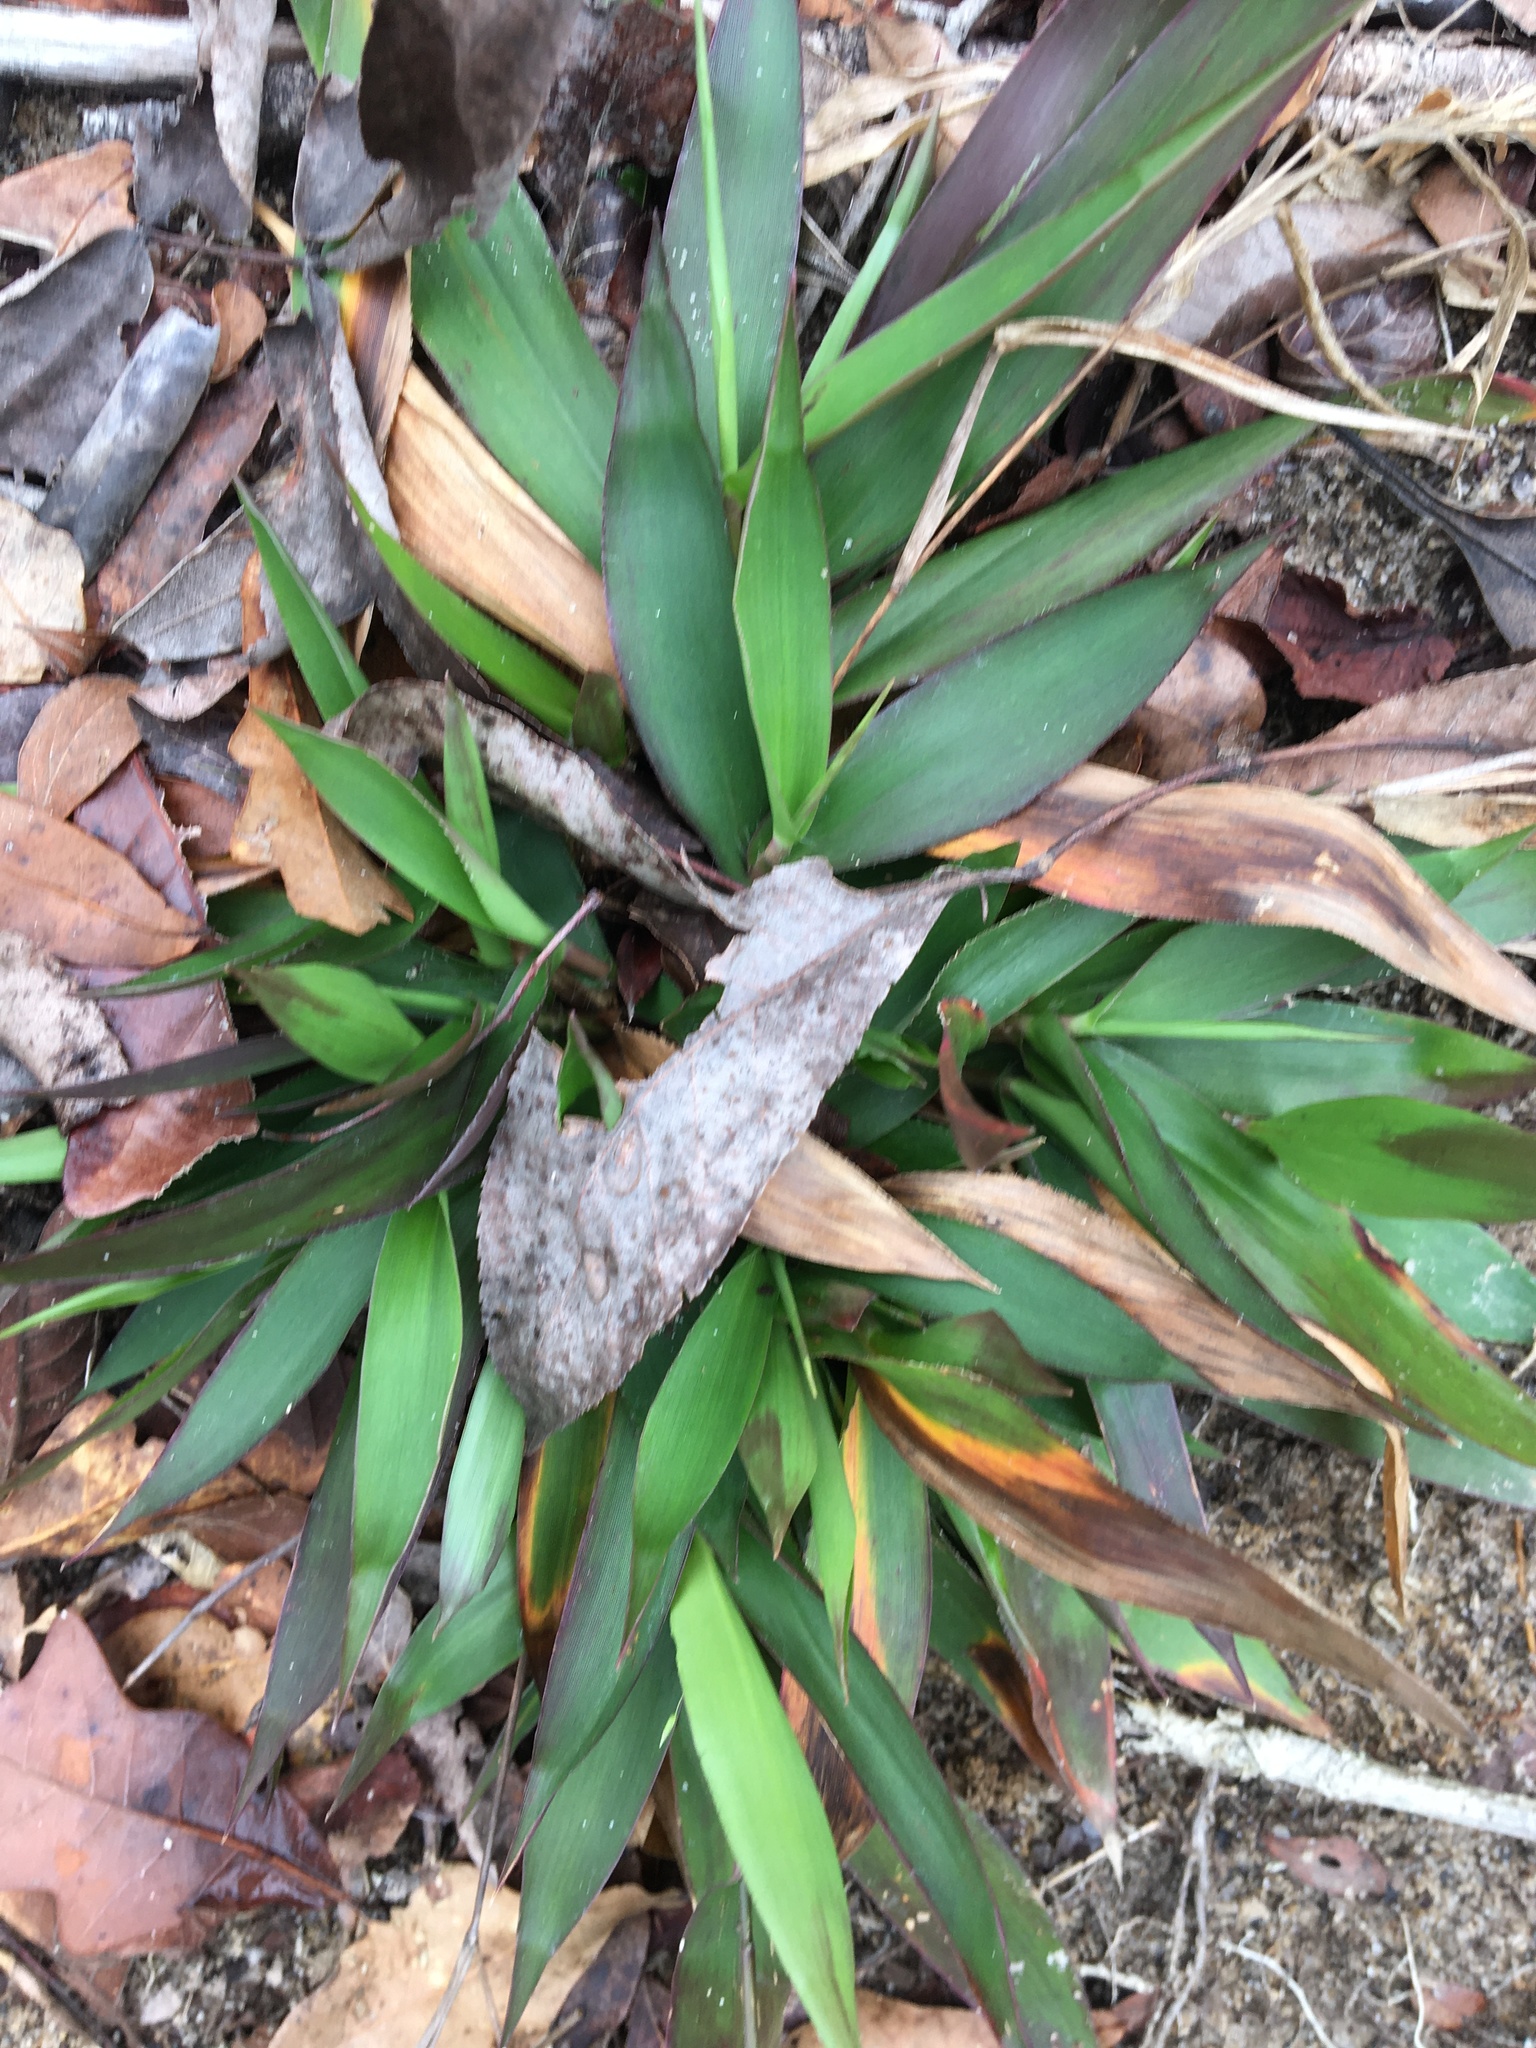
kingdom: Plantae
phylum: Tracheophyta
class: Liliopsida
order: Poales
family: Poaceae
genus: Dichanthelium
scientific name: Dichanthelium commutatum
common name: Variable witchgrass
